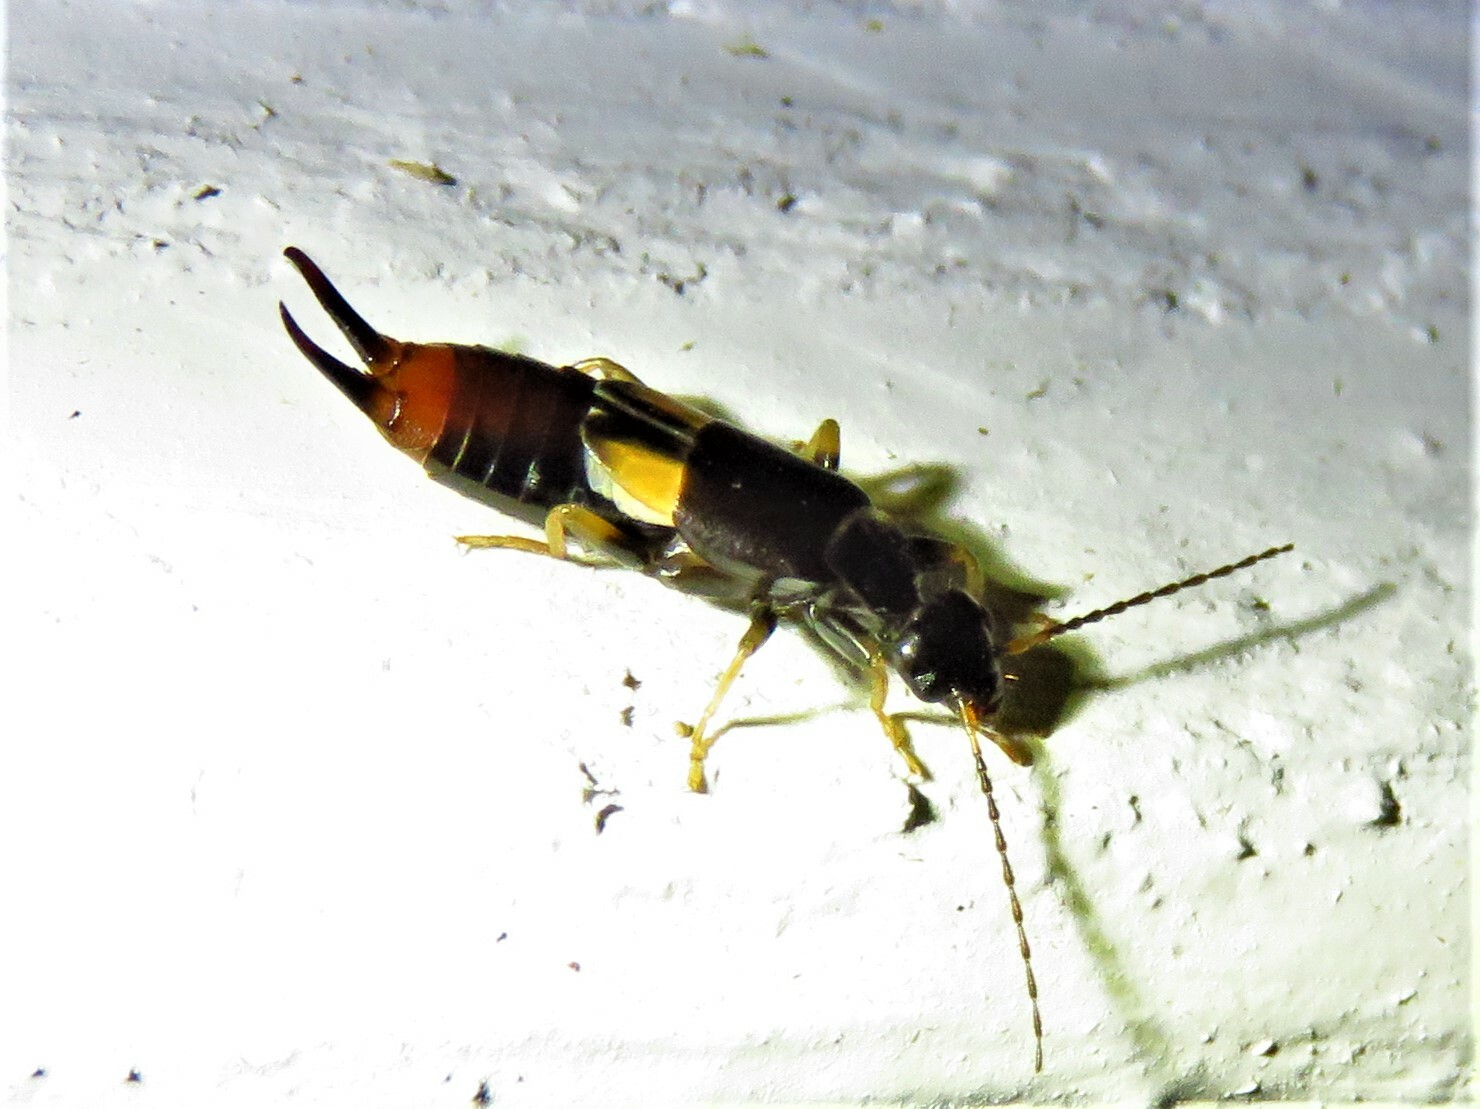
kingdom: Animalia
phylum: Arthropoda
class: Insecta
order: Dermaptera
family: Spongiphoridae
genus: Vostox
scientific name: Vostox brunneipennis
